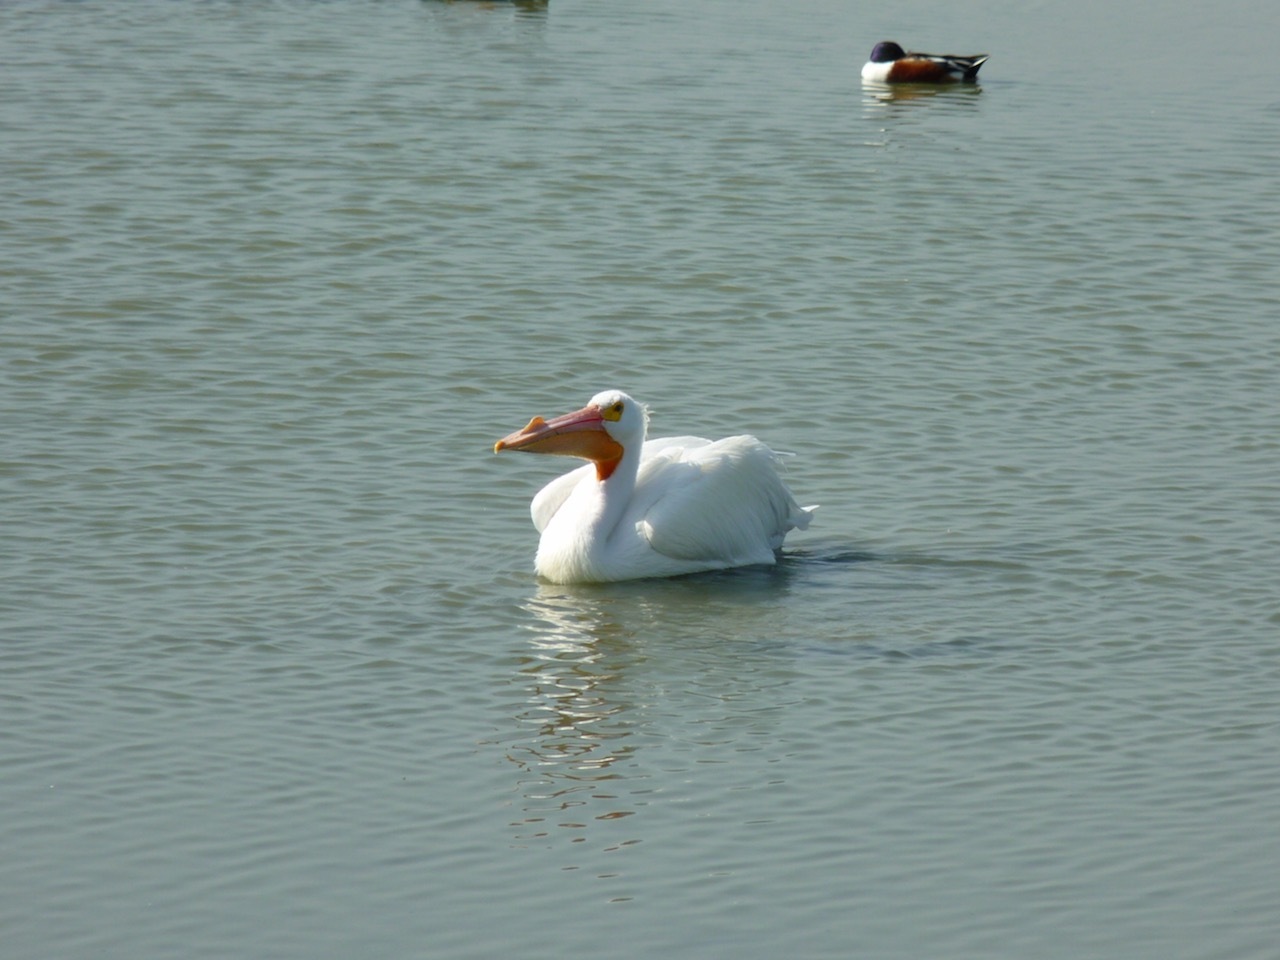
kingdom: Animalia
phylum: Chordata
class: Aves
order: Pelecaniformes
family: Pelecanidae
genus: Pelecanus
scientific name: Pelecanus erythrorhynchos
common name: American white pelican
